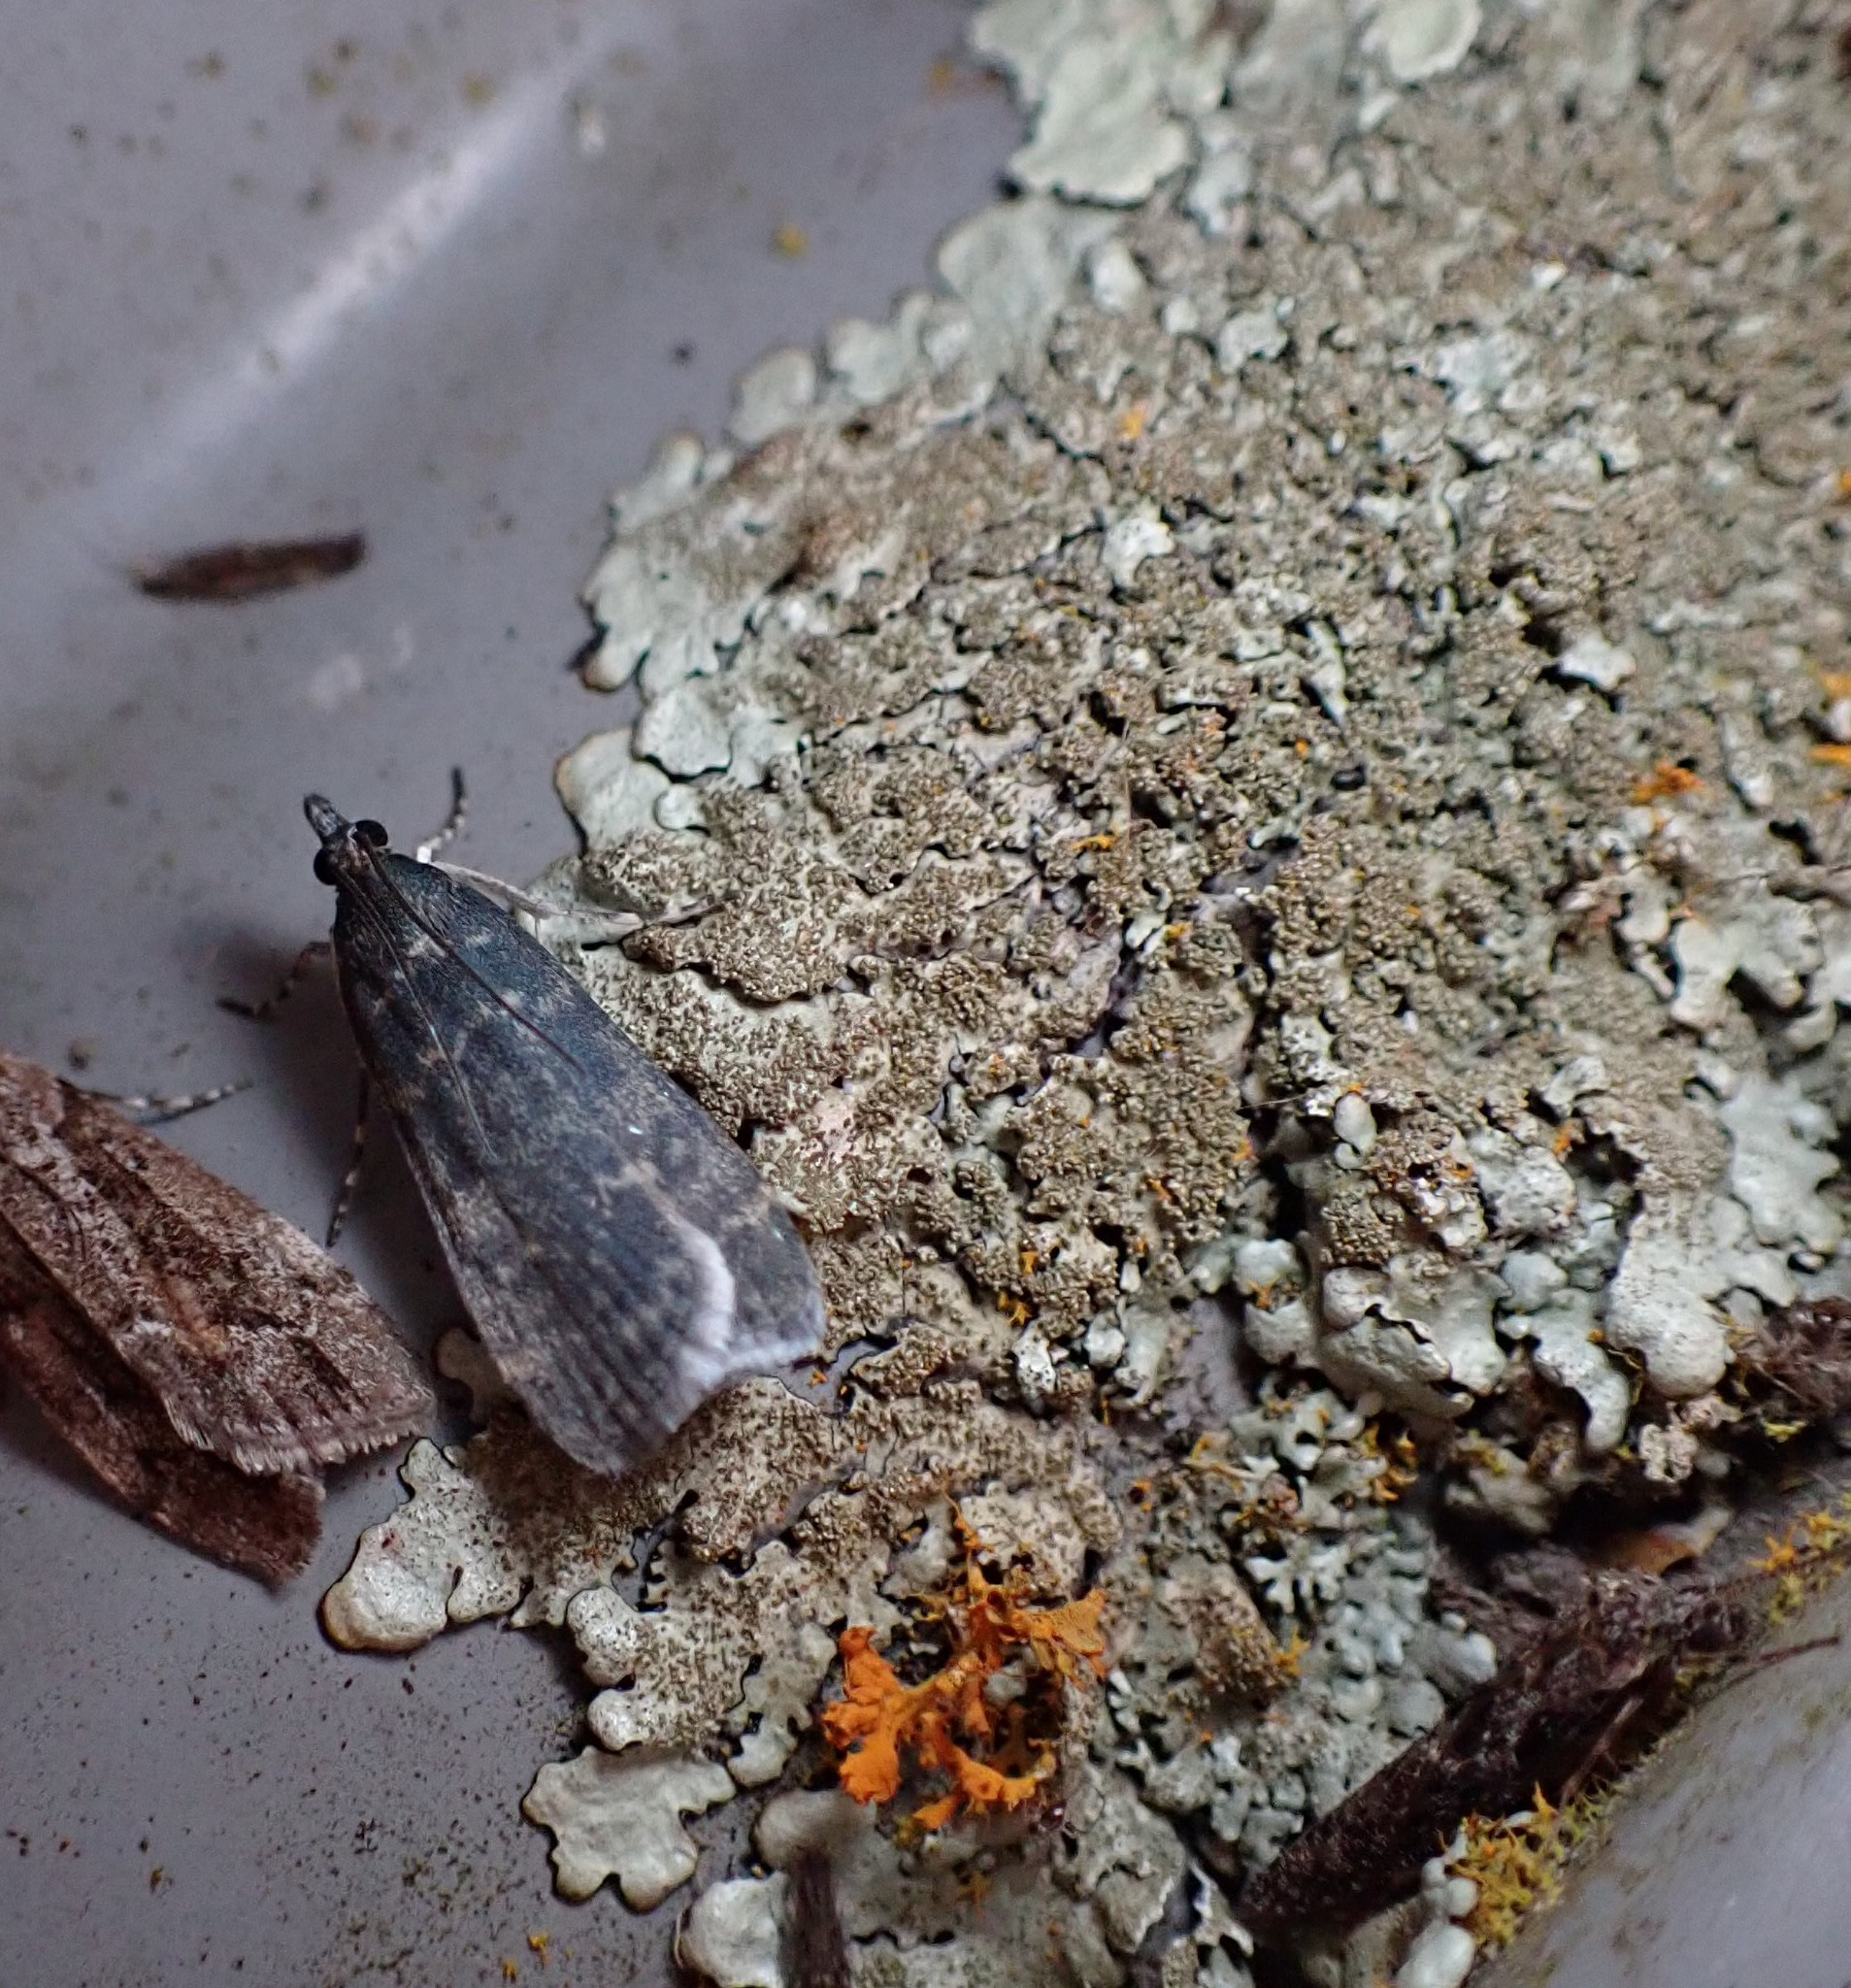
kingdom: Animalia
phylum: Arthropoda
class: Insecta
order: Lepidoptera
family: Crambidae
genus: Eudonia
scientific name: Eudonia cataxesta
